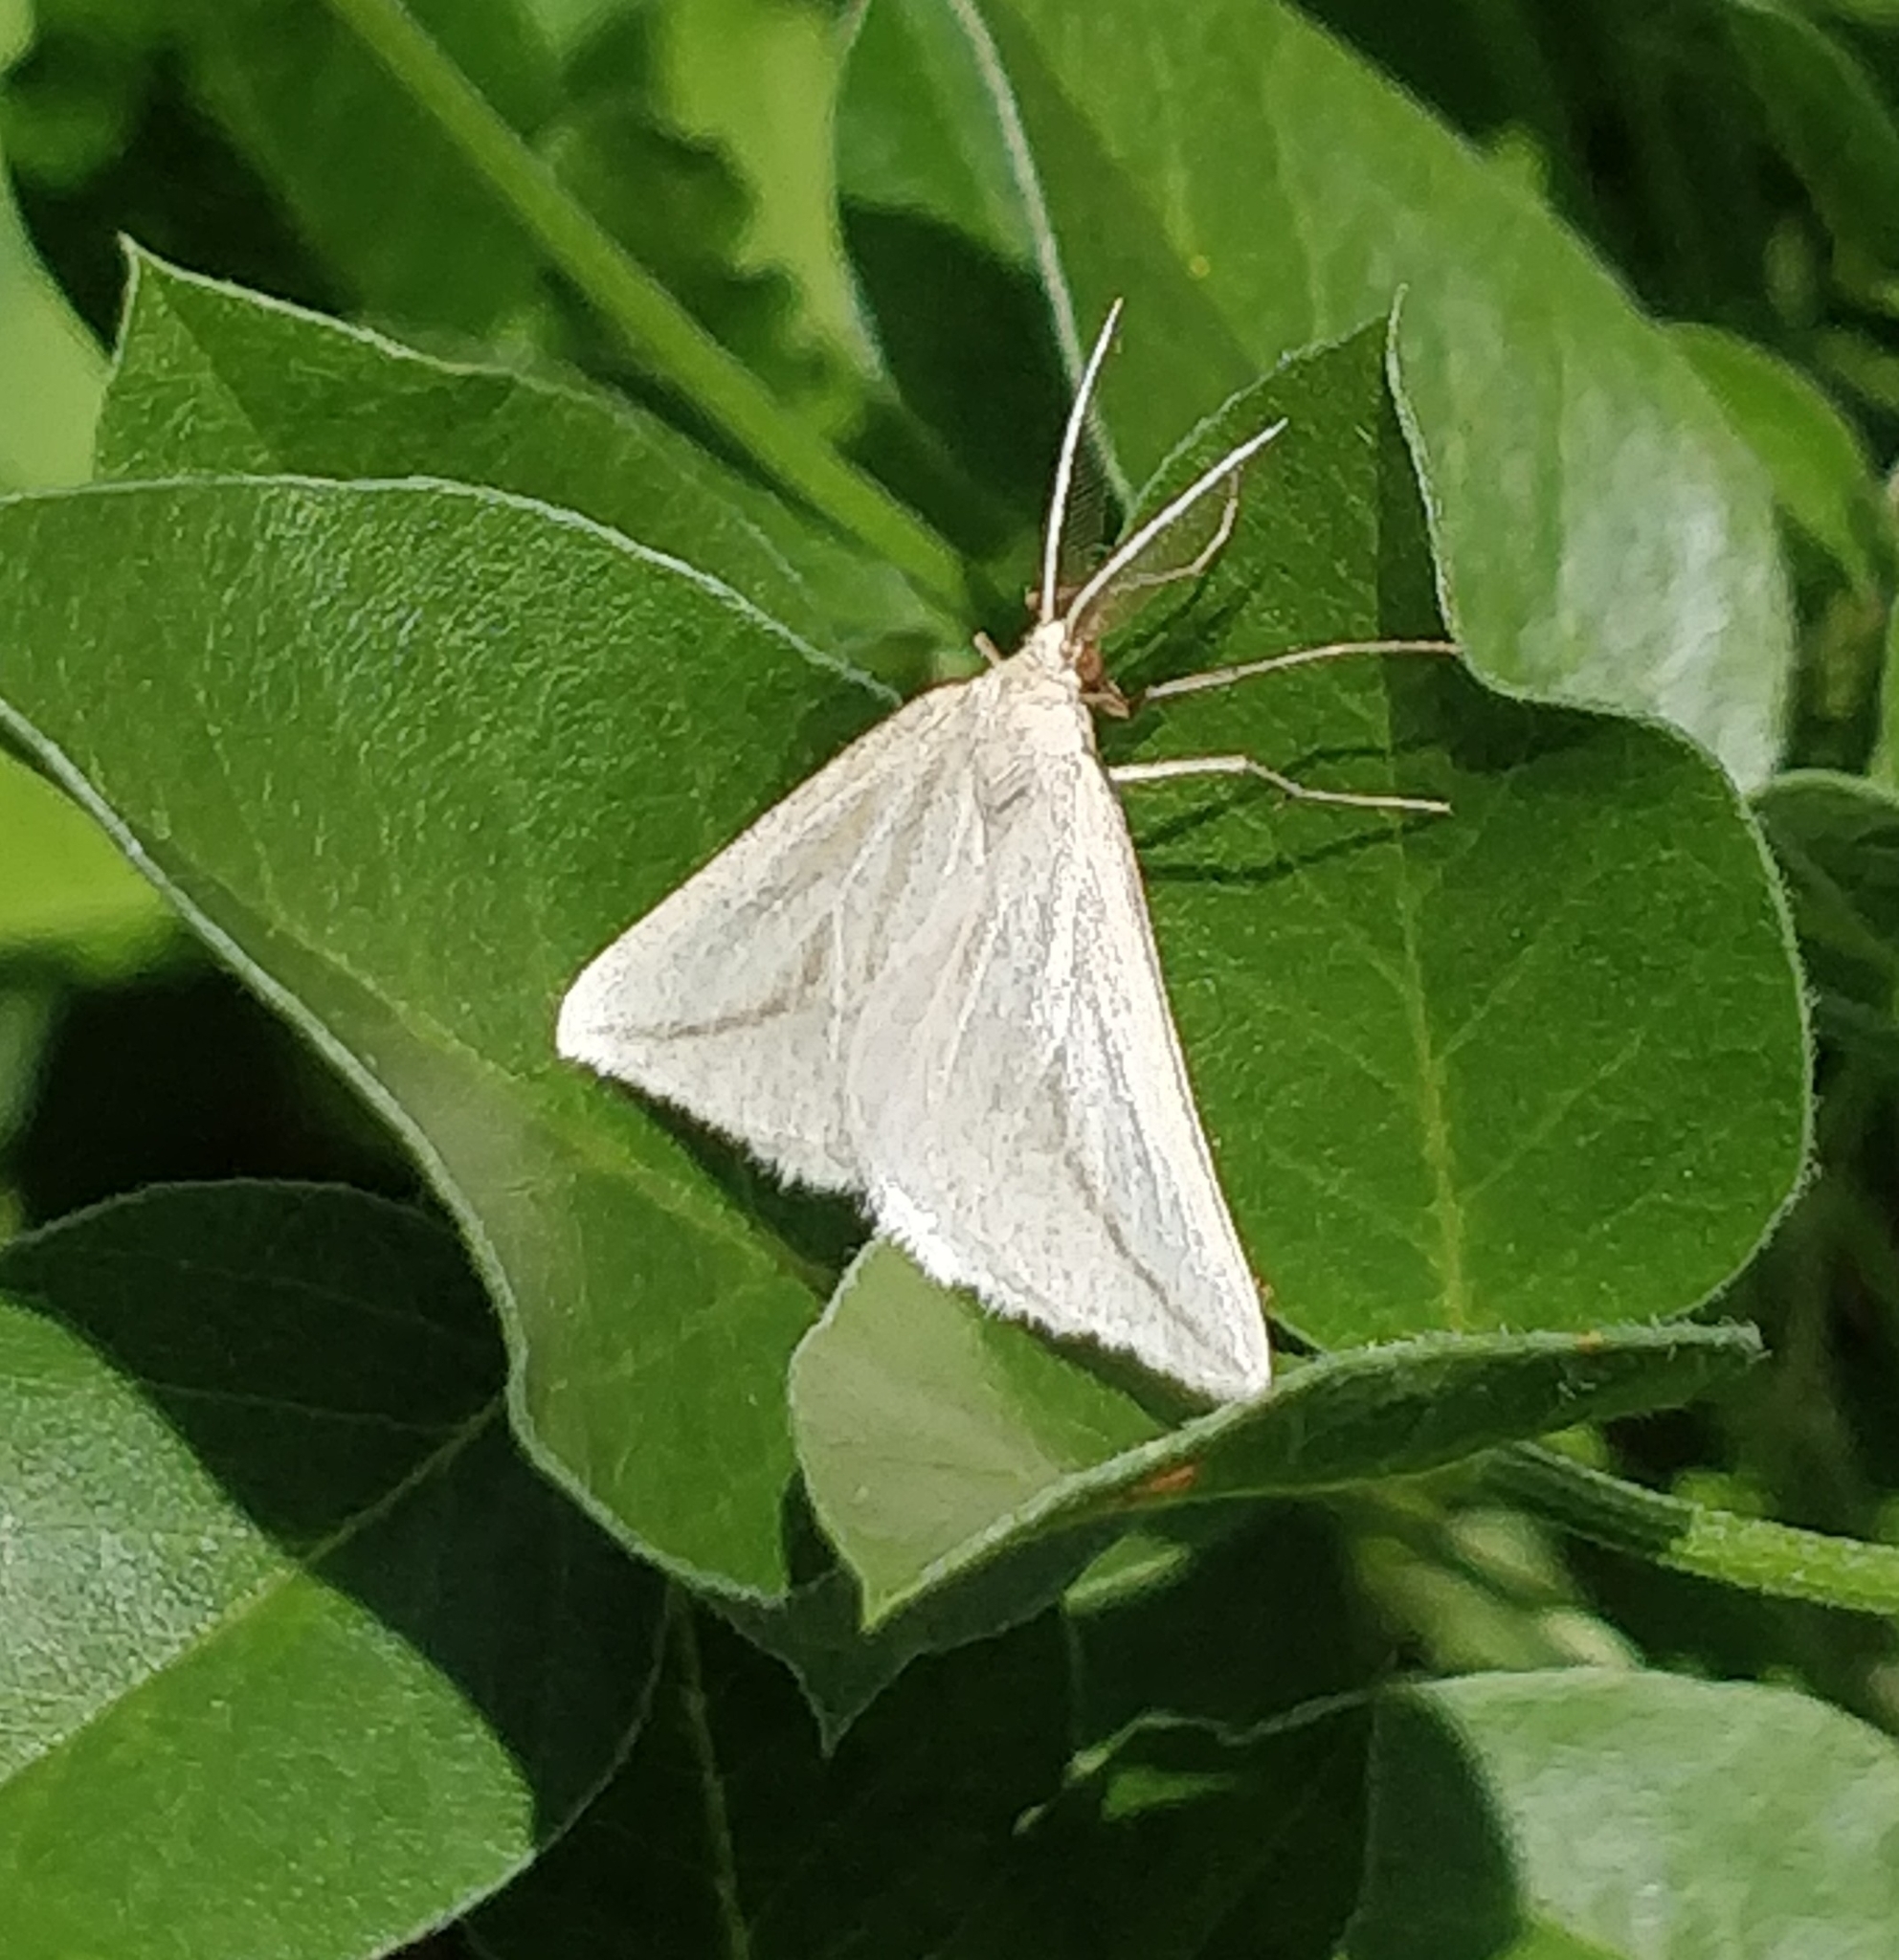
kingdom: Animalia
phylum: Arthropoda
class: Insecta
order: Lepidoptera
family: Geometridae
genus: Aspitates
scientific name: Aspitates collinaria
